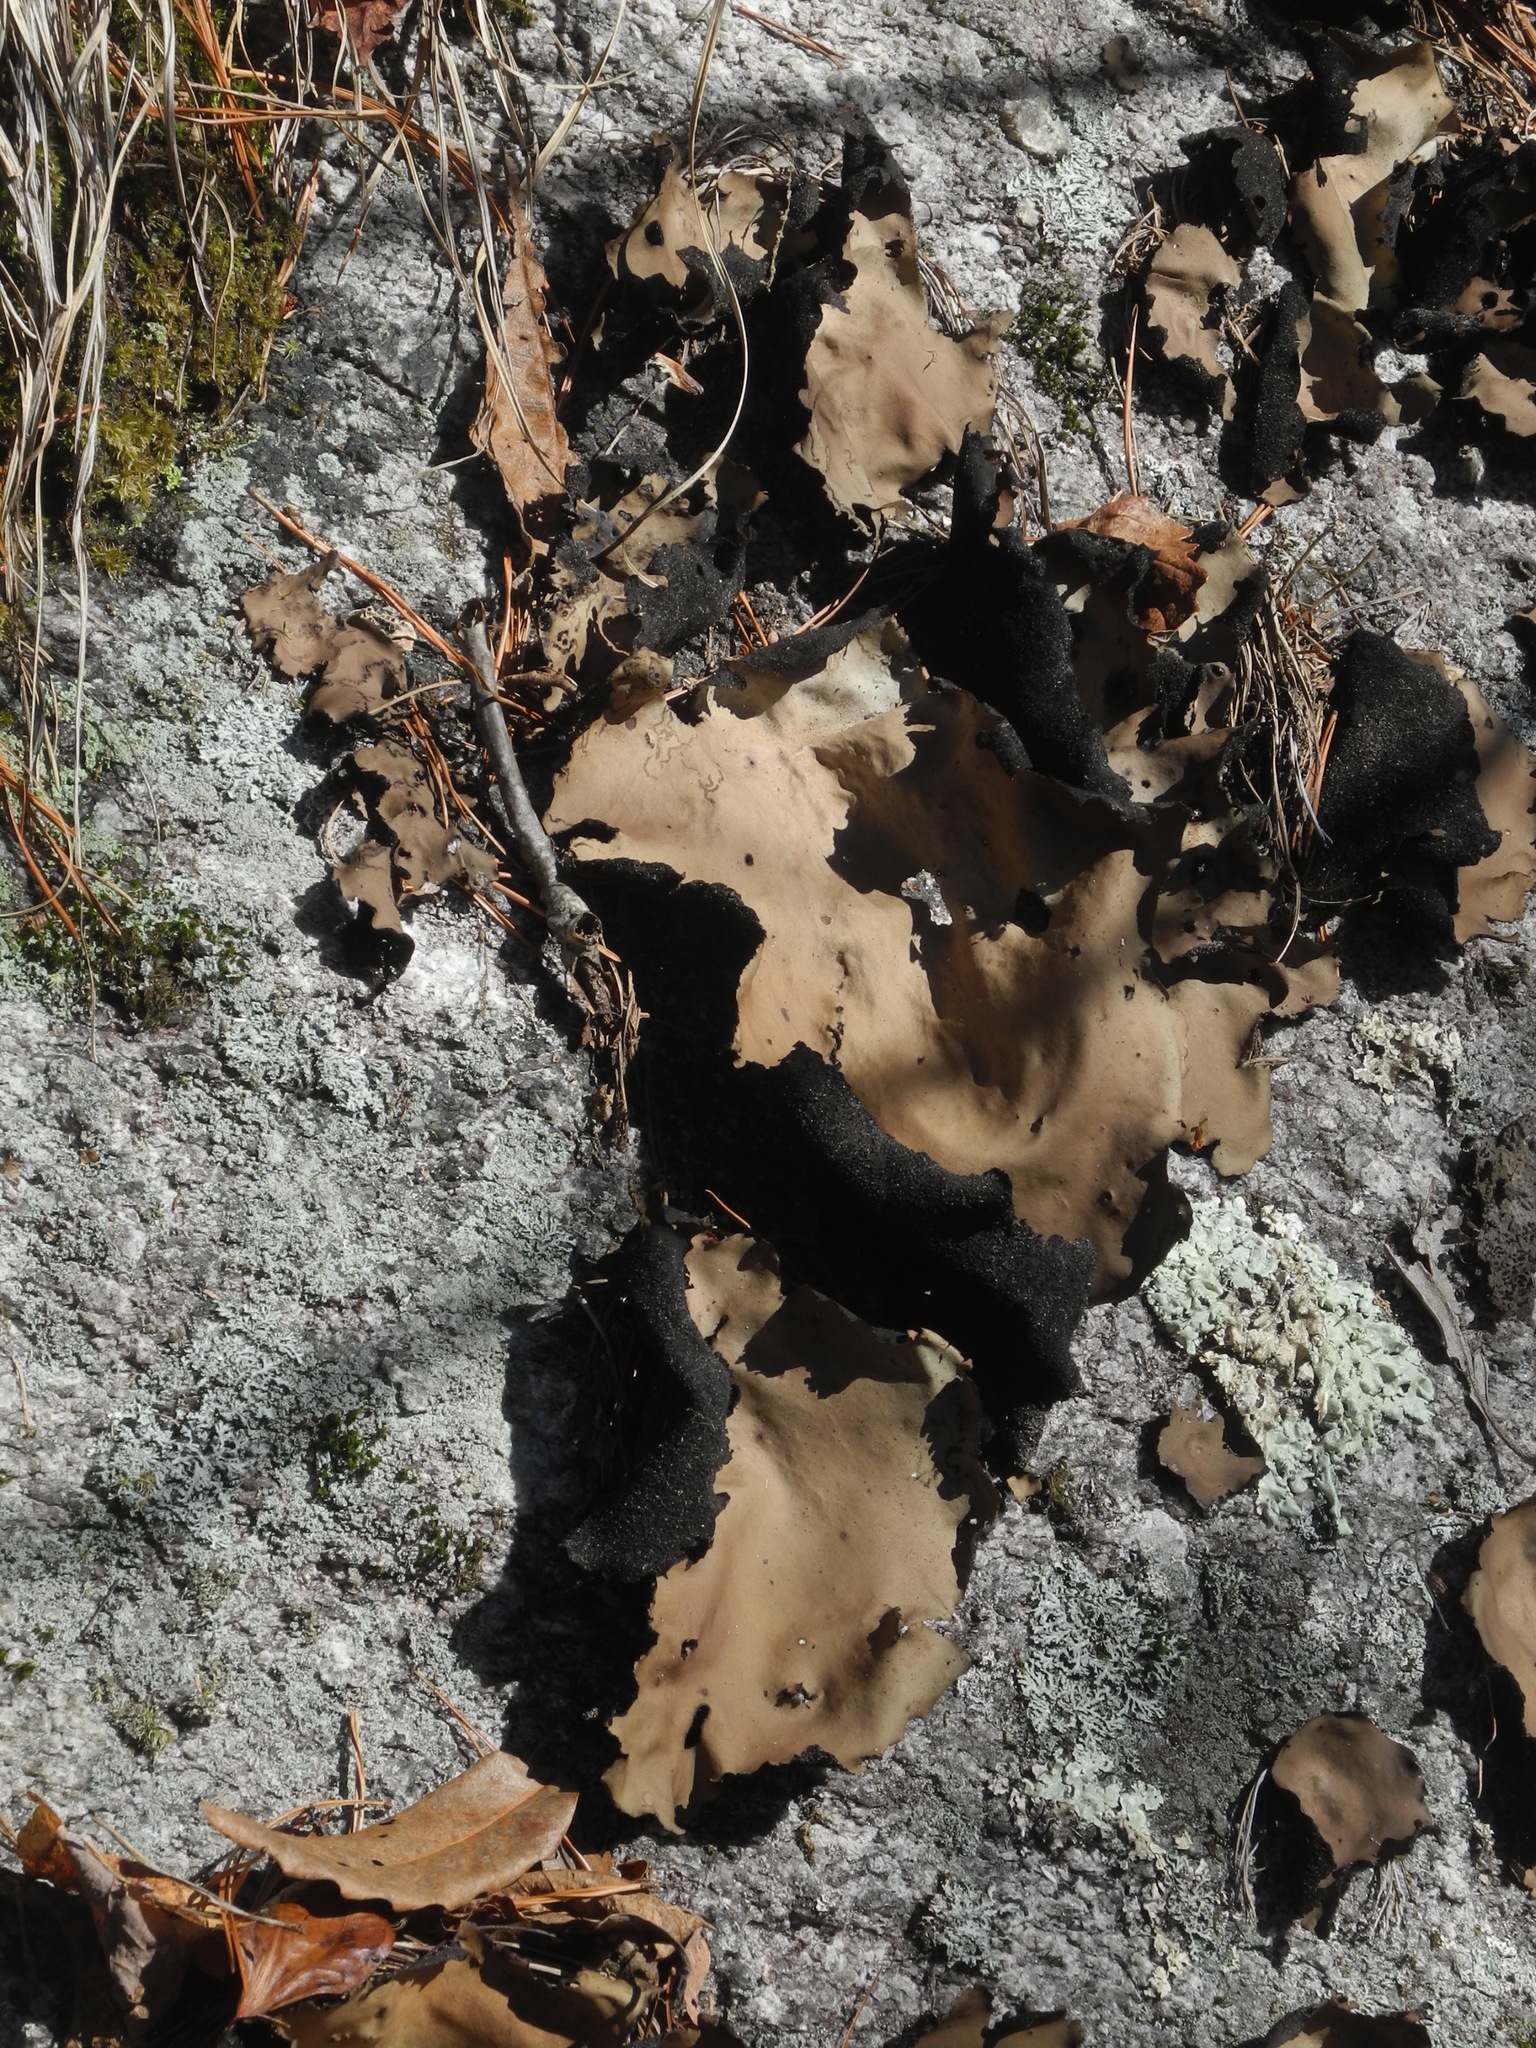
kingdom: Fungi
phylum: Ascomycota
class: Lecanoromycetes
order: Umbilicariales
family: Umbilicariaceae
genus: Umbilicaria
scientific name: Umbilicaria mammulata
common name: Smooth rock tripe
